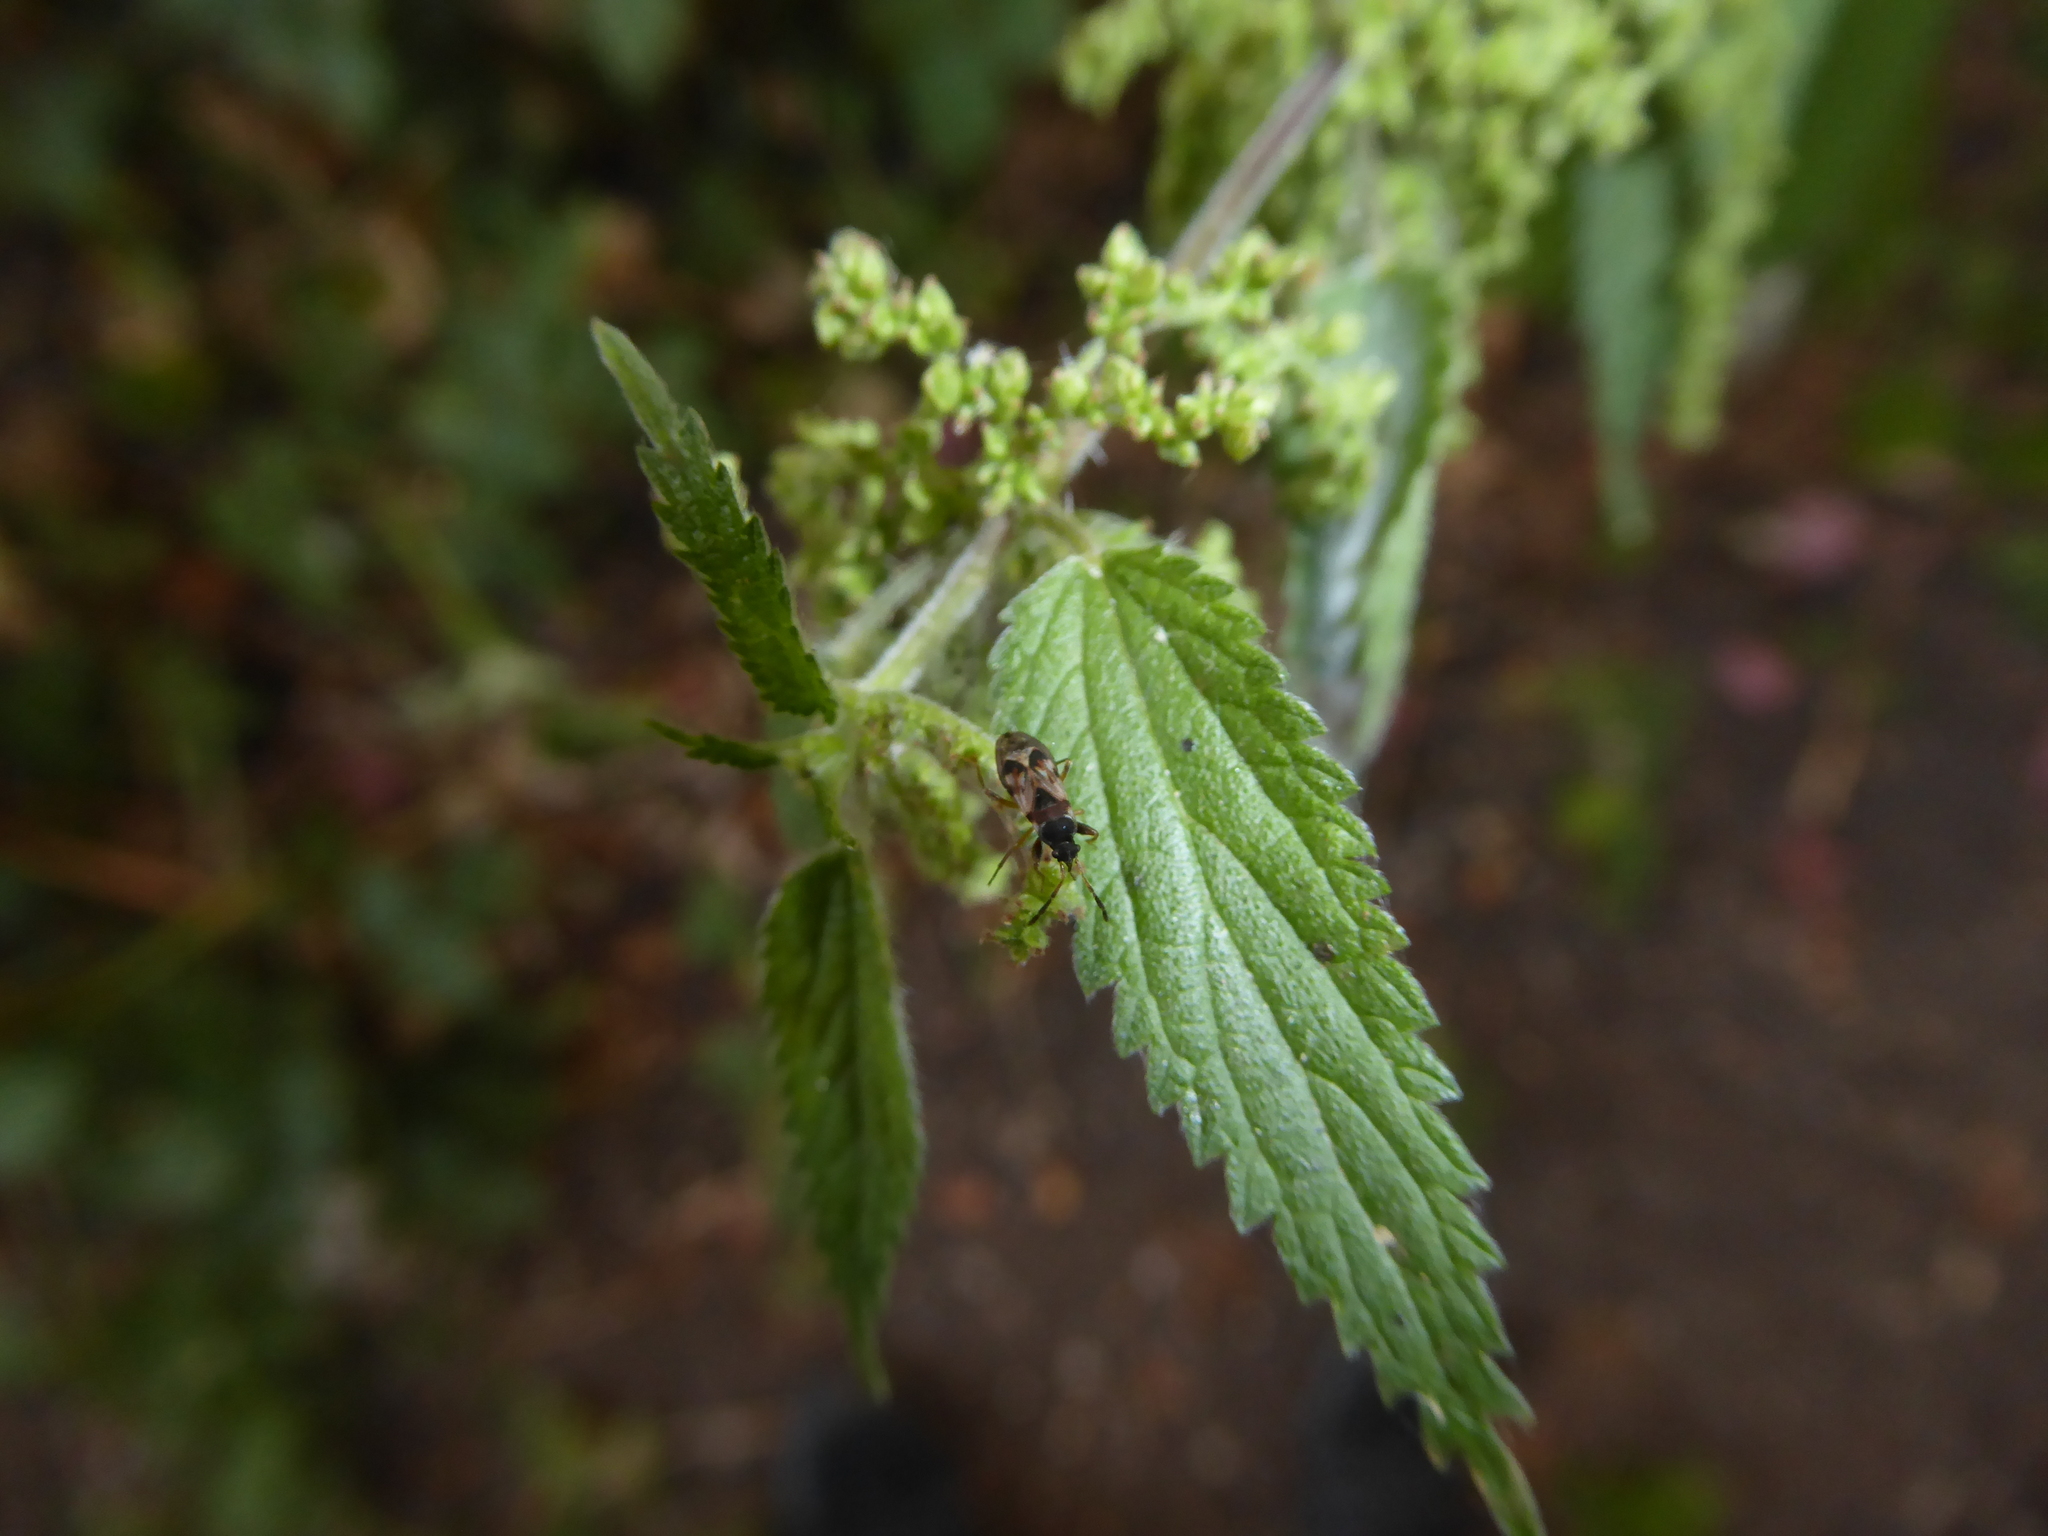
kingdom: Animalia
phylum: Arthropoda
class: Insecta
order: Hemiptera
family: Rhyparochromidae
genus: Scolopostethus
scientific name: Scolopostethus
